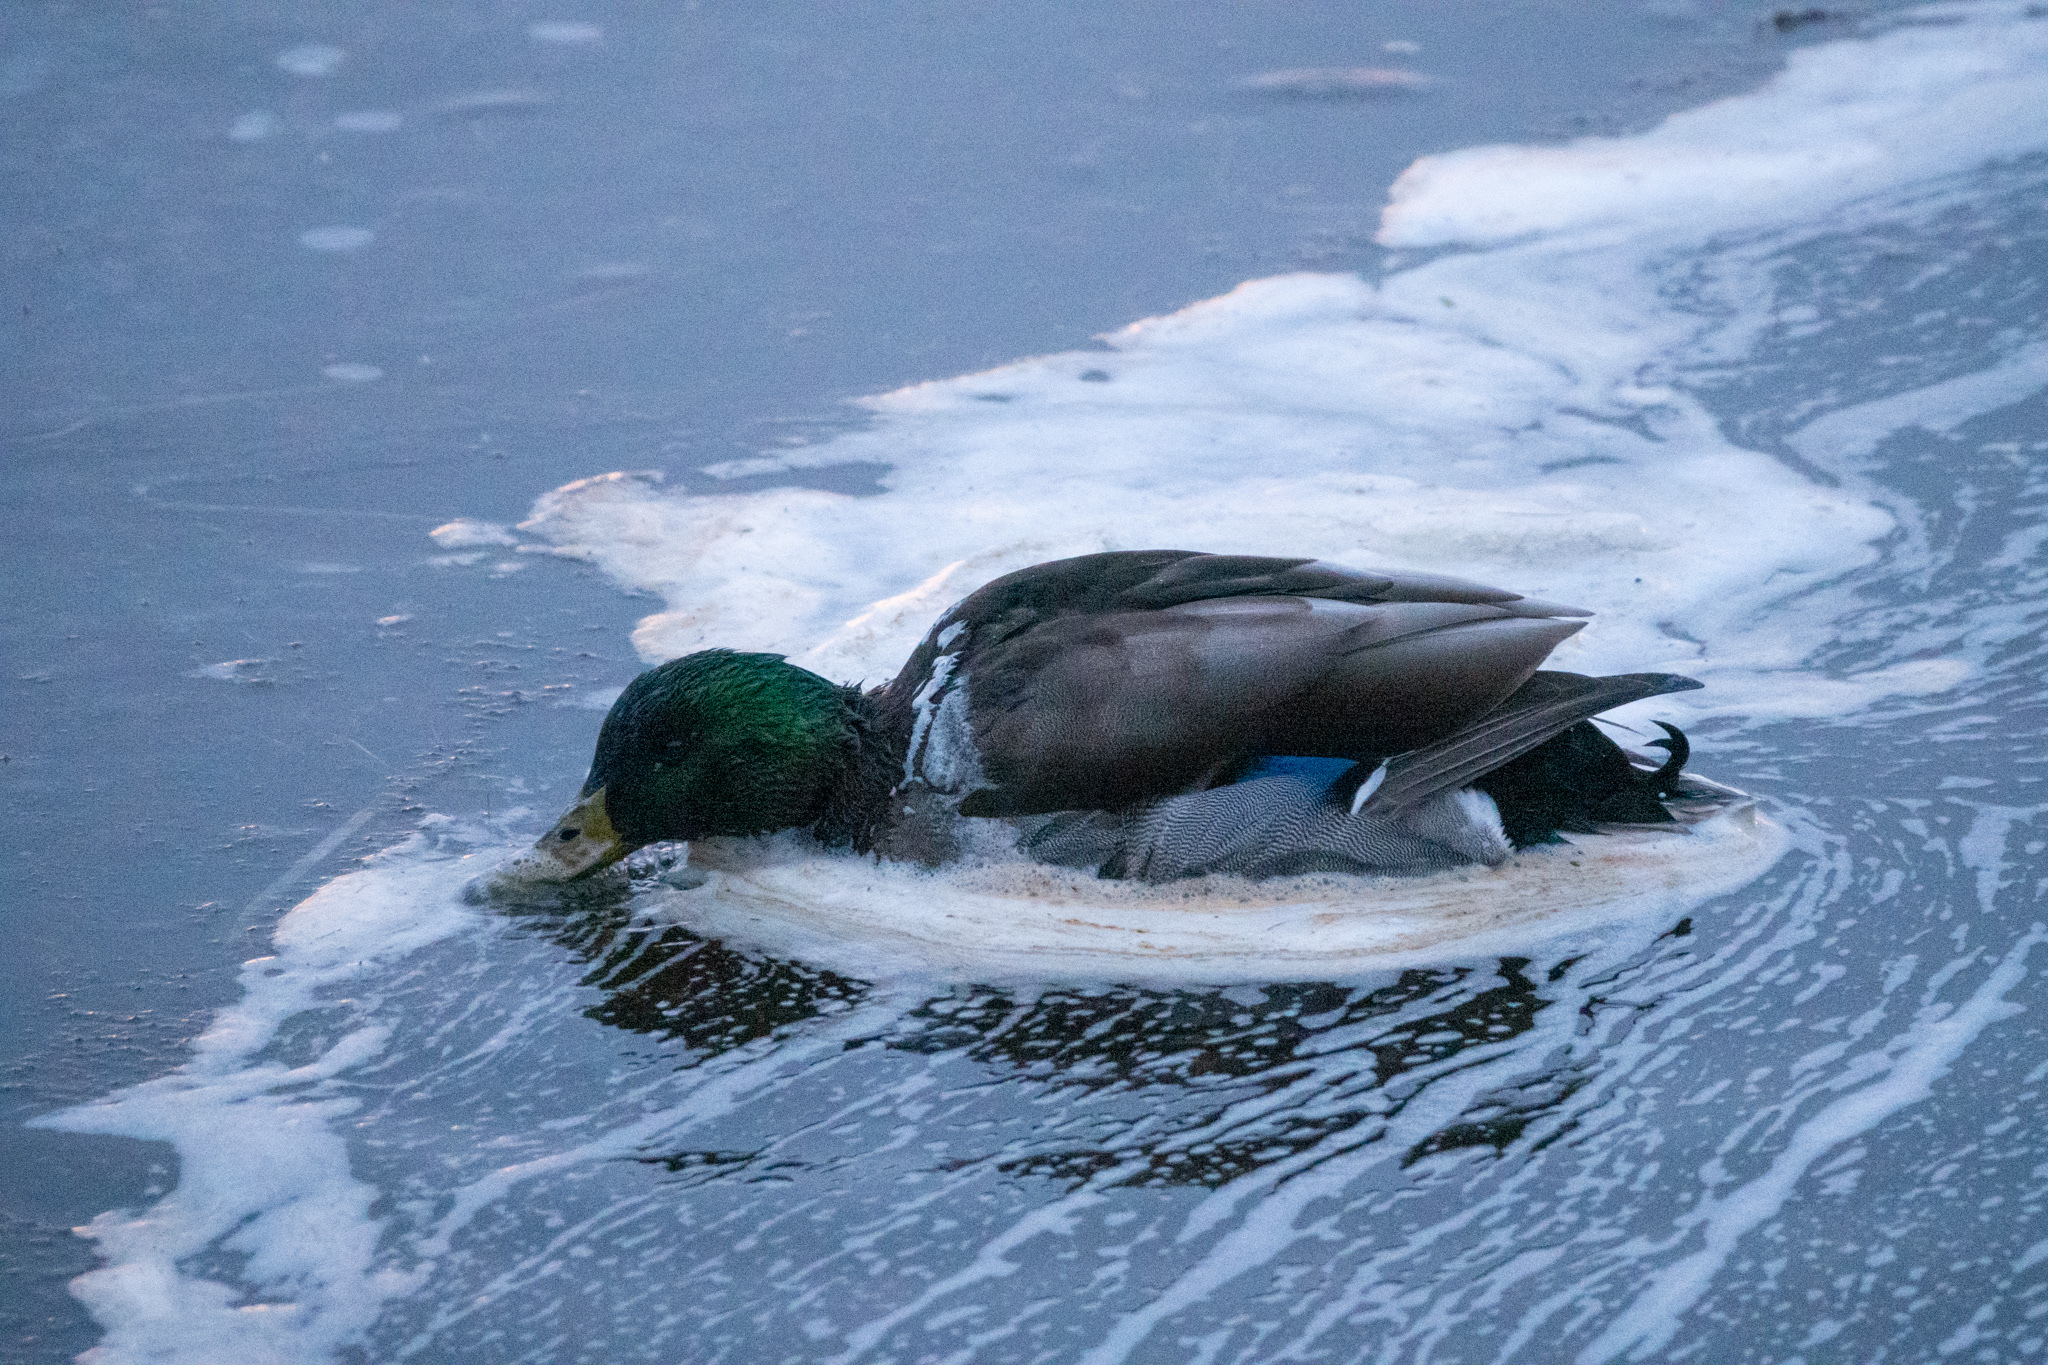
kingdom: Animalia
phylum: Chordata
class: Aves
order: Anseriformes
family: Anatidae
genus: Anas
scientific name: Anas platyrhynchos
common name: Mallard
